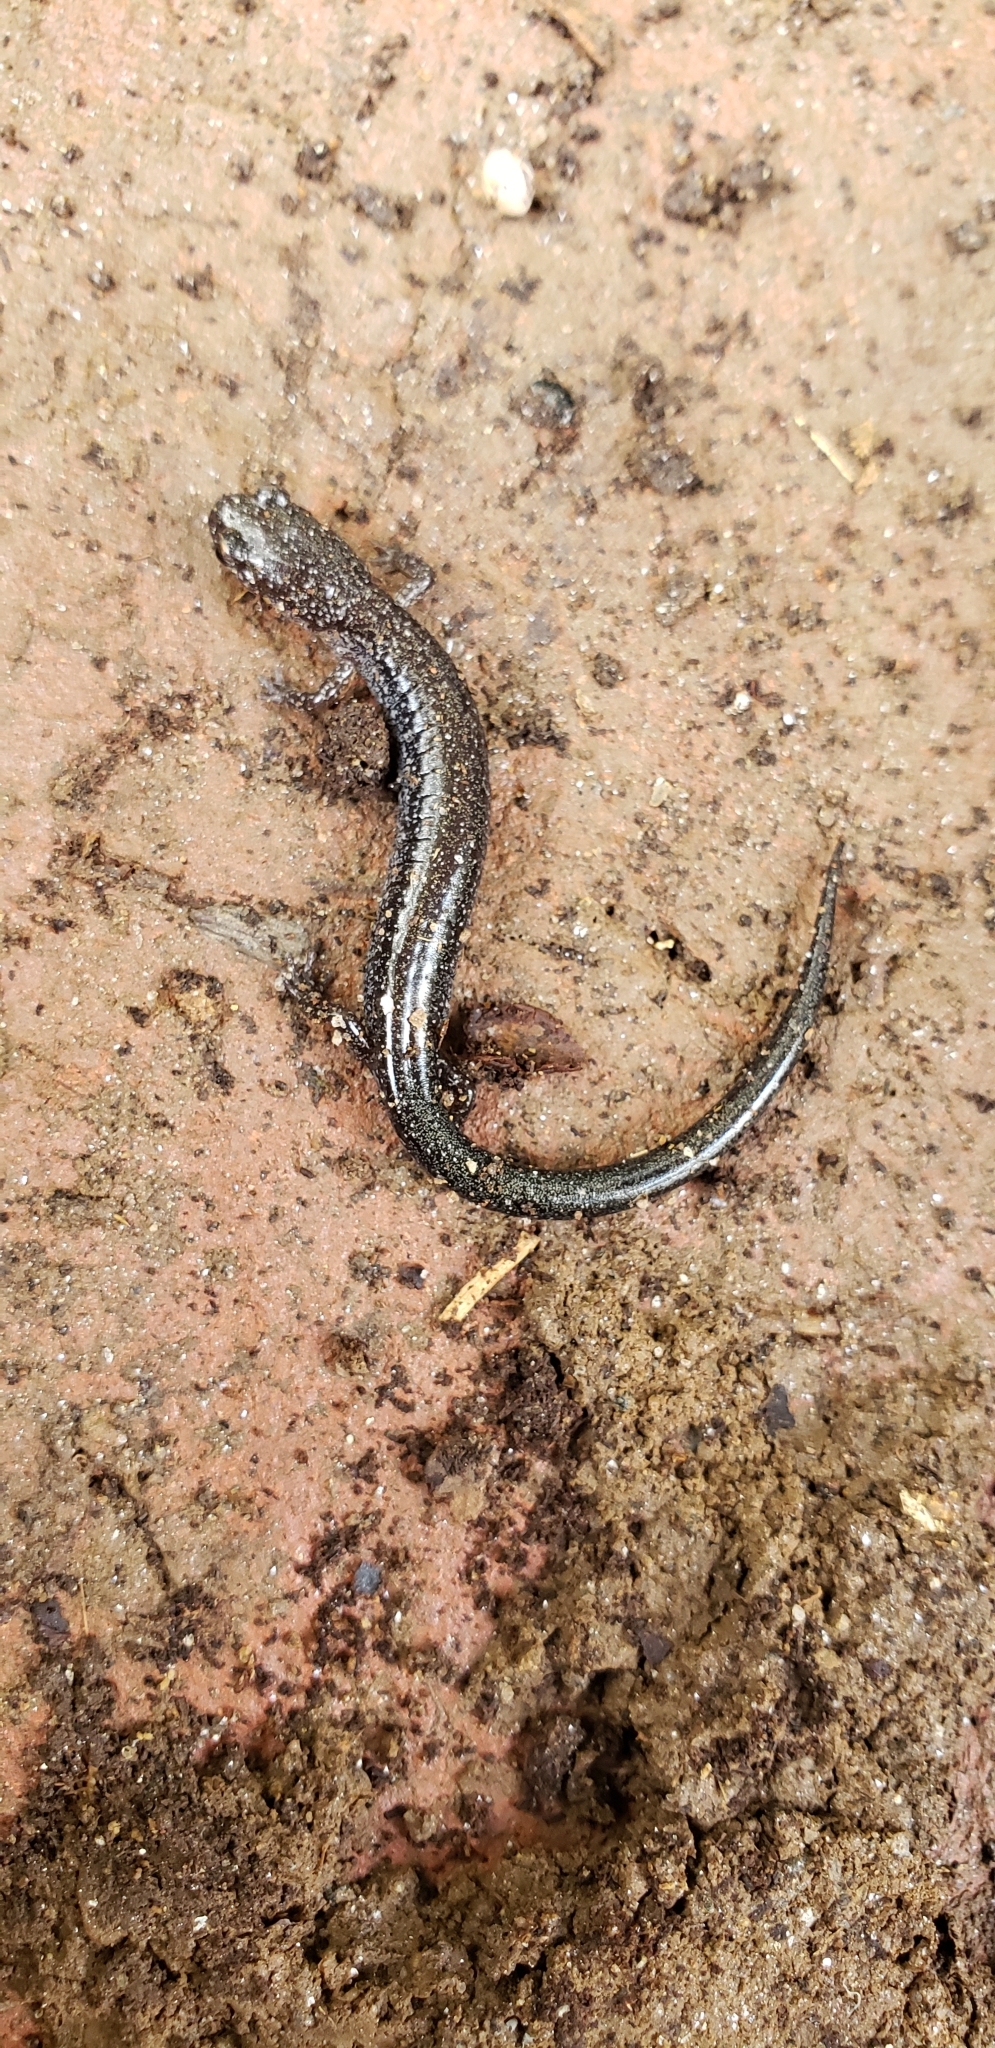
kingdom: Animalia
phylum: Chordata
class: Amphibia
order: Caudata
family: Plethodontidae
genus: Plethodon
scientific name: Plethodon cinereus
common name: Redback salamander
